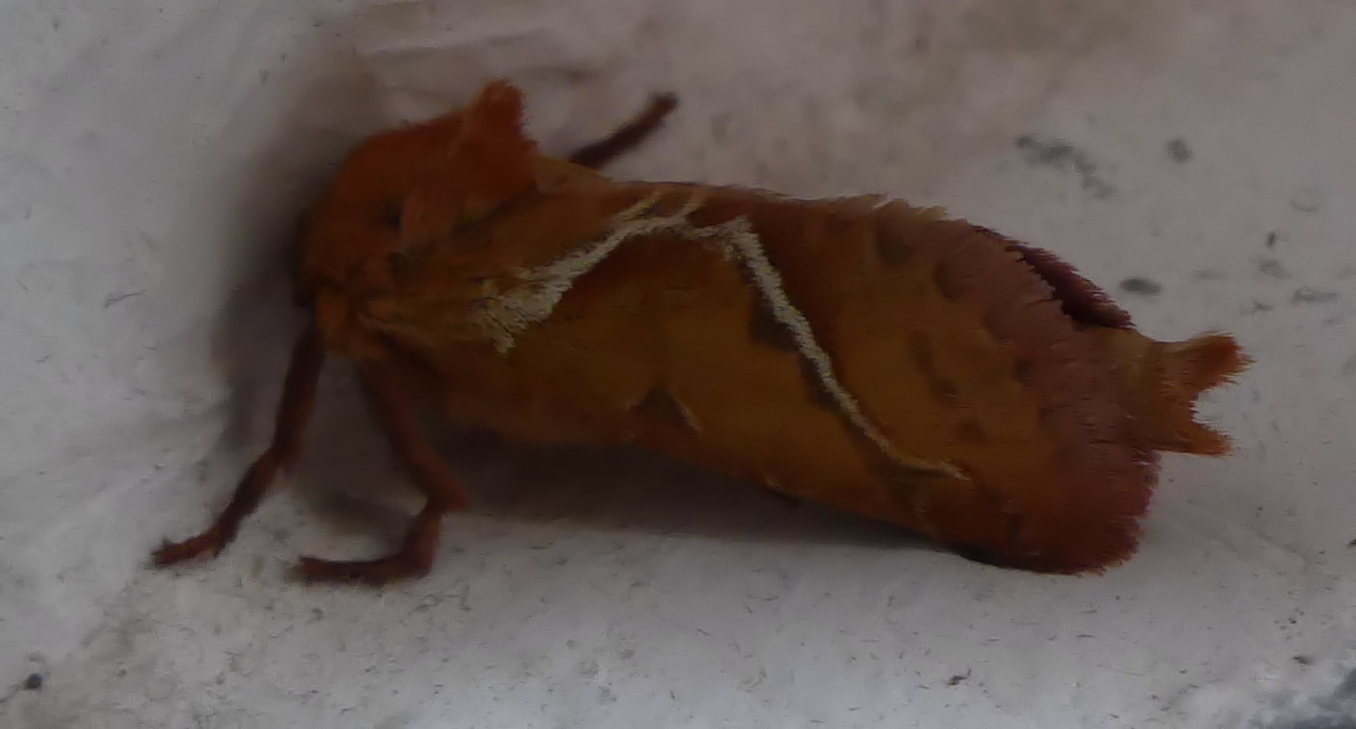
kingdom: Animalia
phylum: Arthropoda
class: Insecta
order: Lepidoptera
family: Hepialidae
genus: Triodia
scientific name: Triodia sylvina
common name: Orange swift
